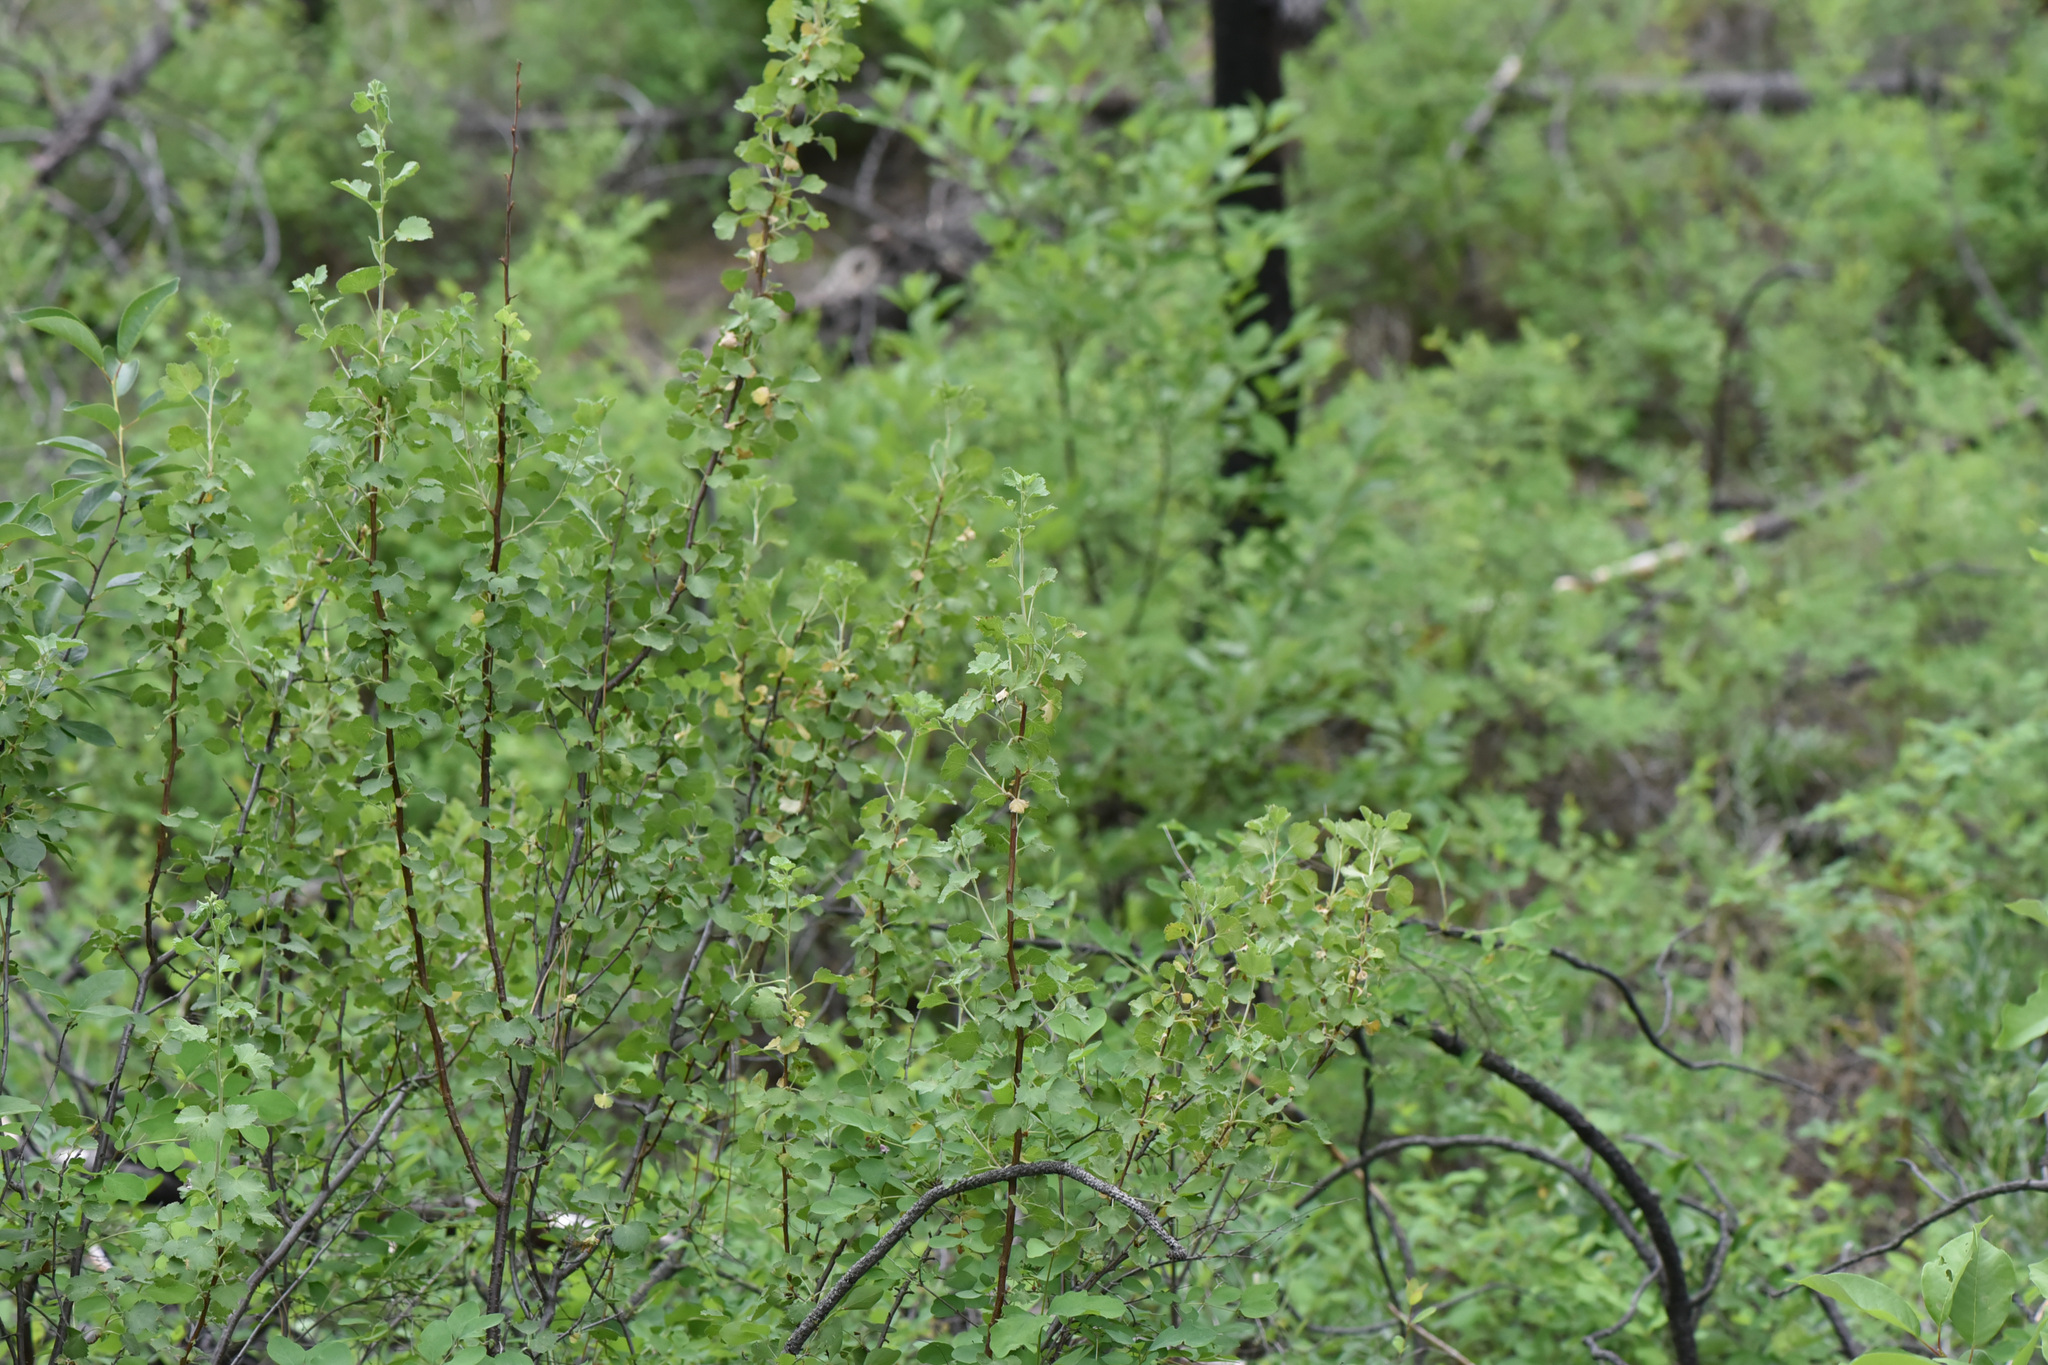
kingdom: Plantae
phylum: Tracheophyta
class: Magnoliopsida
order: Saxifragales
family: Grossulariaceae
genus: Ribes
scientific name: Ribes cereum
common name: Wax currant
